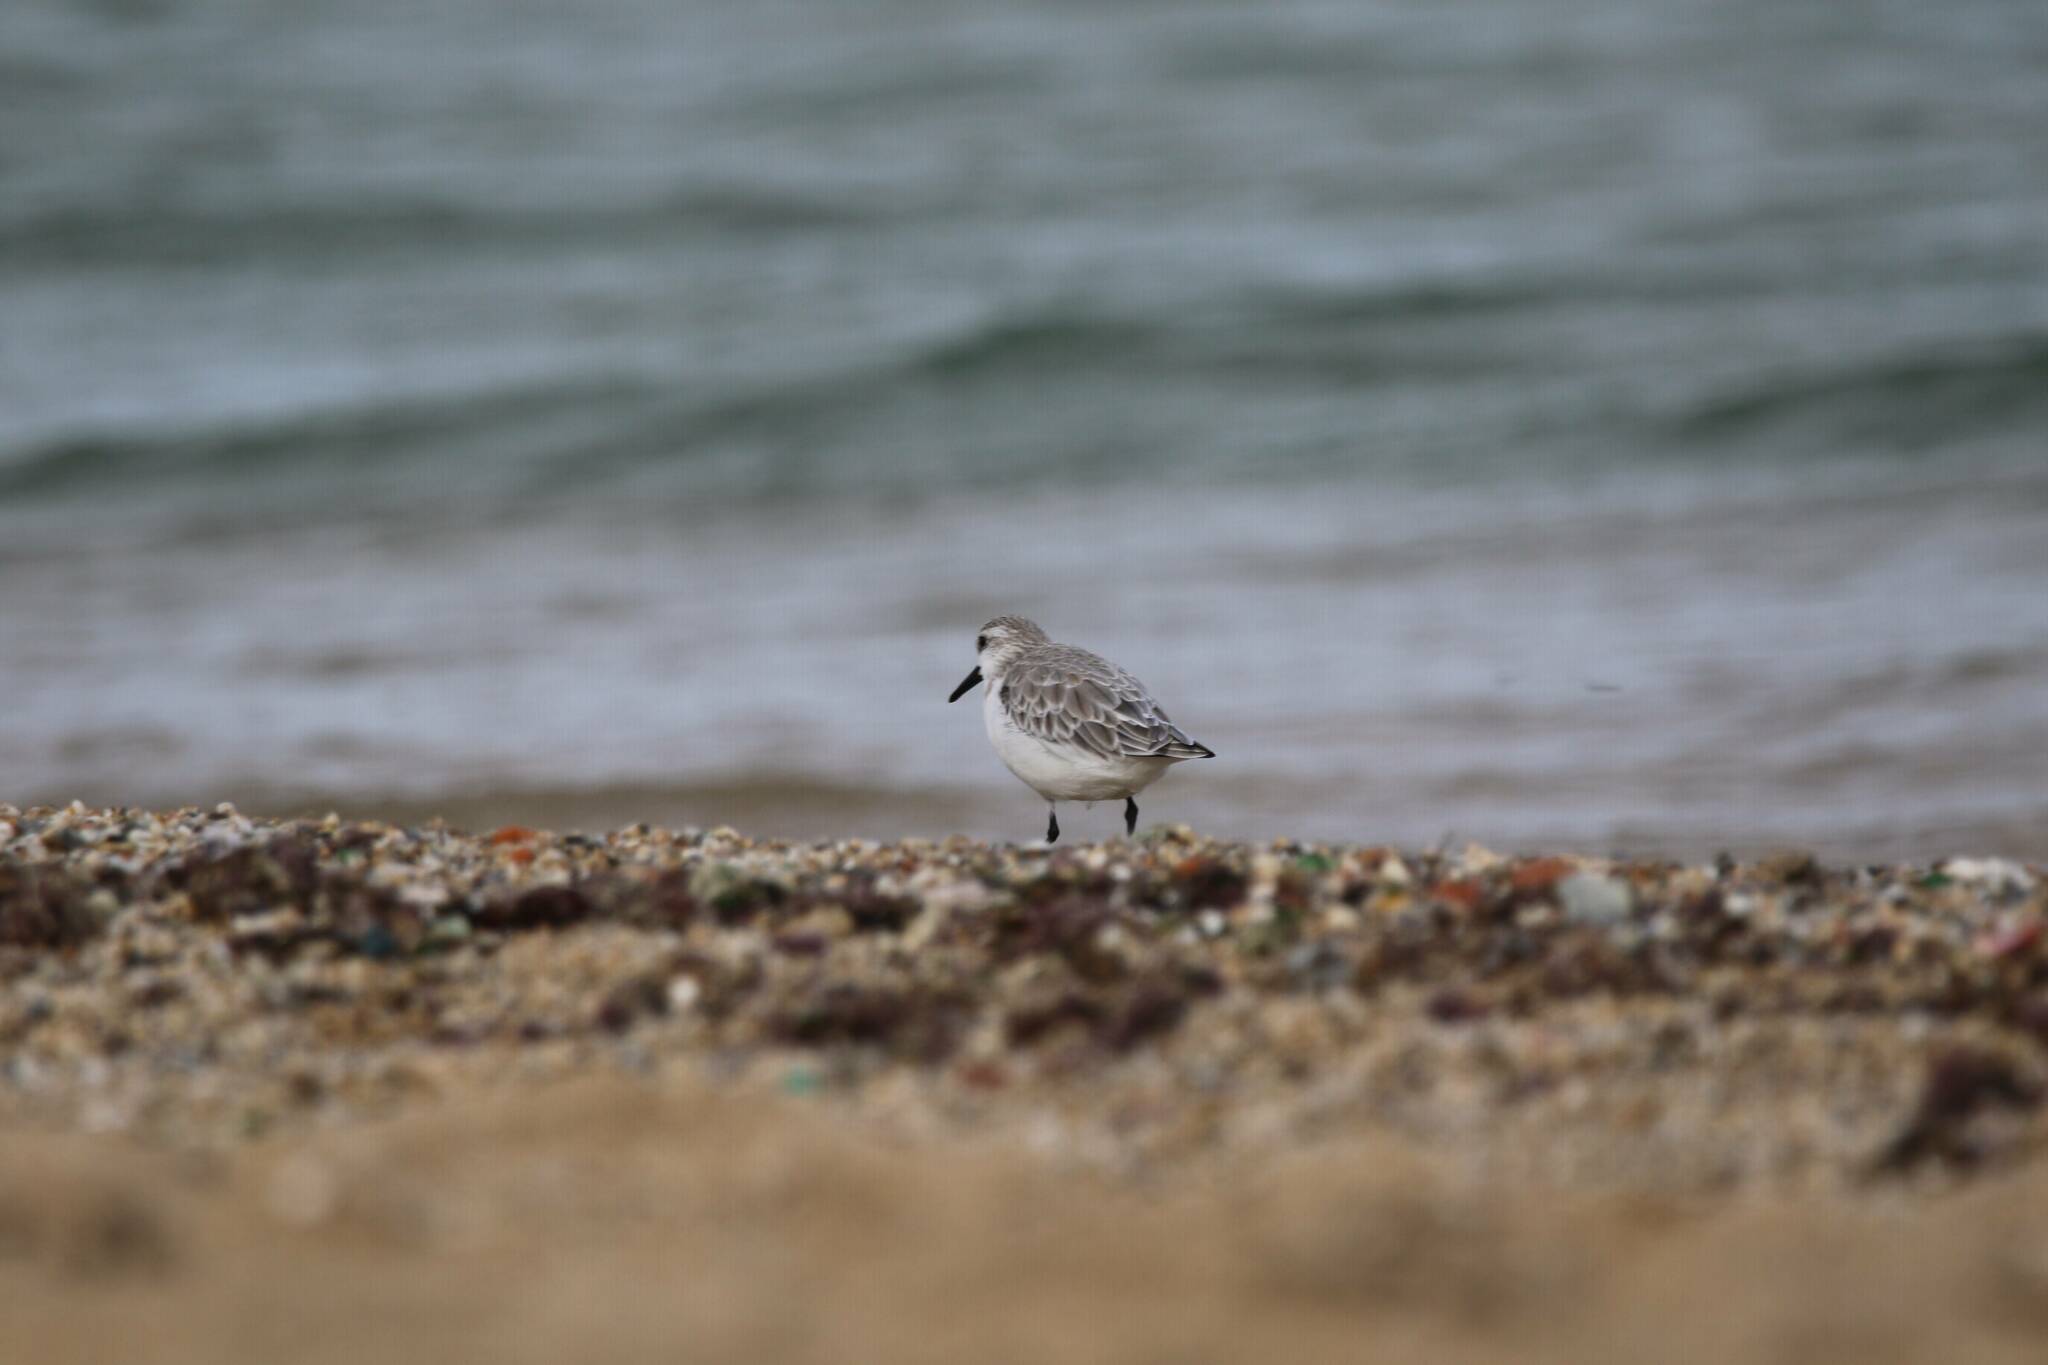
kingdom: Animalia
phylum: Chordata
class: Aves
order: Charadriiformes
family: Scolopacidae
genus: Calidris
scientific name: Calidris alba
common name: Sanderling
